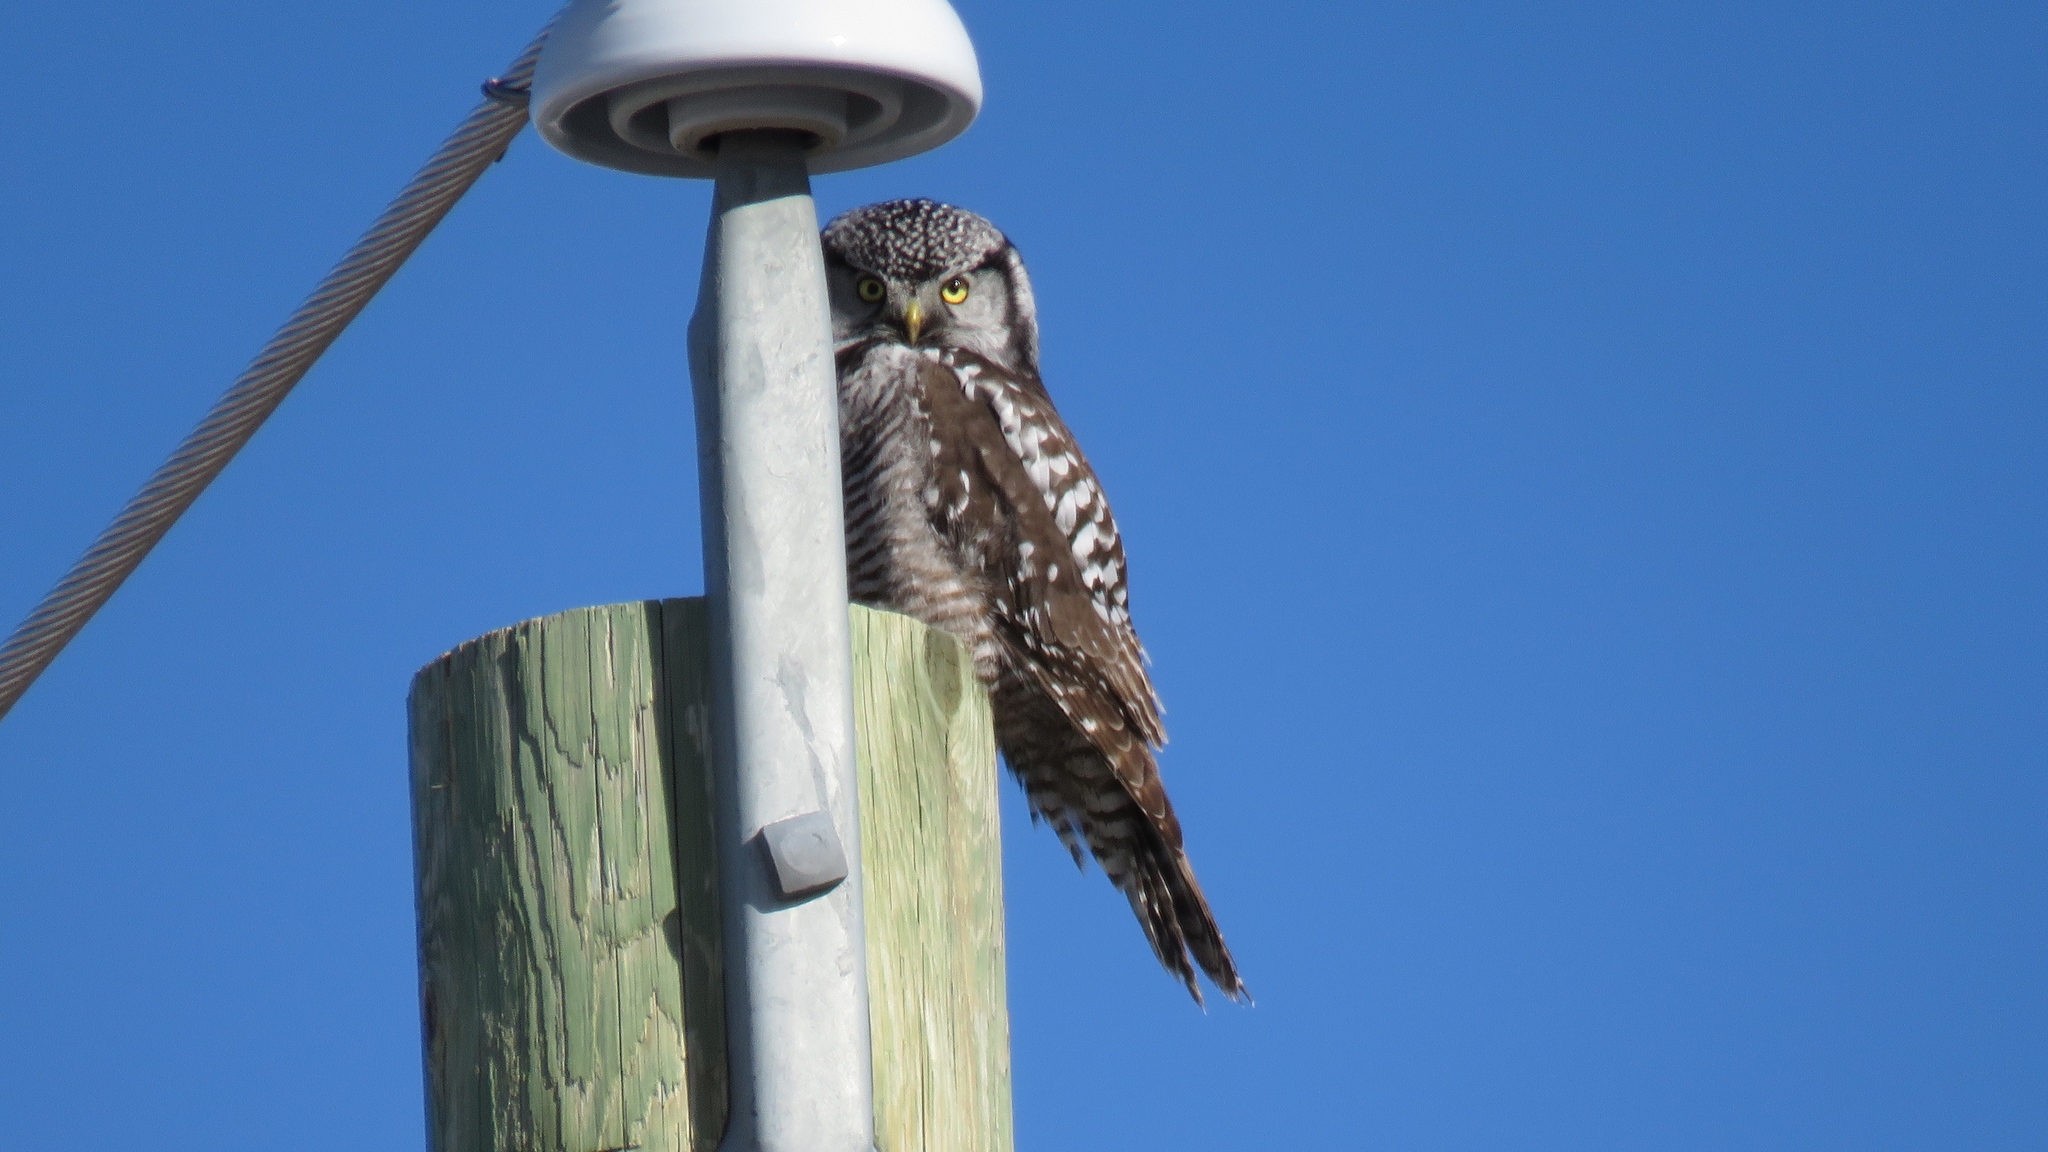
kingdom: Animalia
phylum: Chordata
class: Aves
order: Strigiformes
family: Strigidae
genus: Surnia
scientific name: Surnia ulula
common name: Northern hawk-owl
